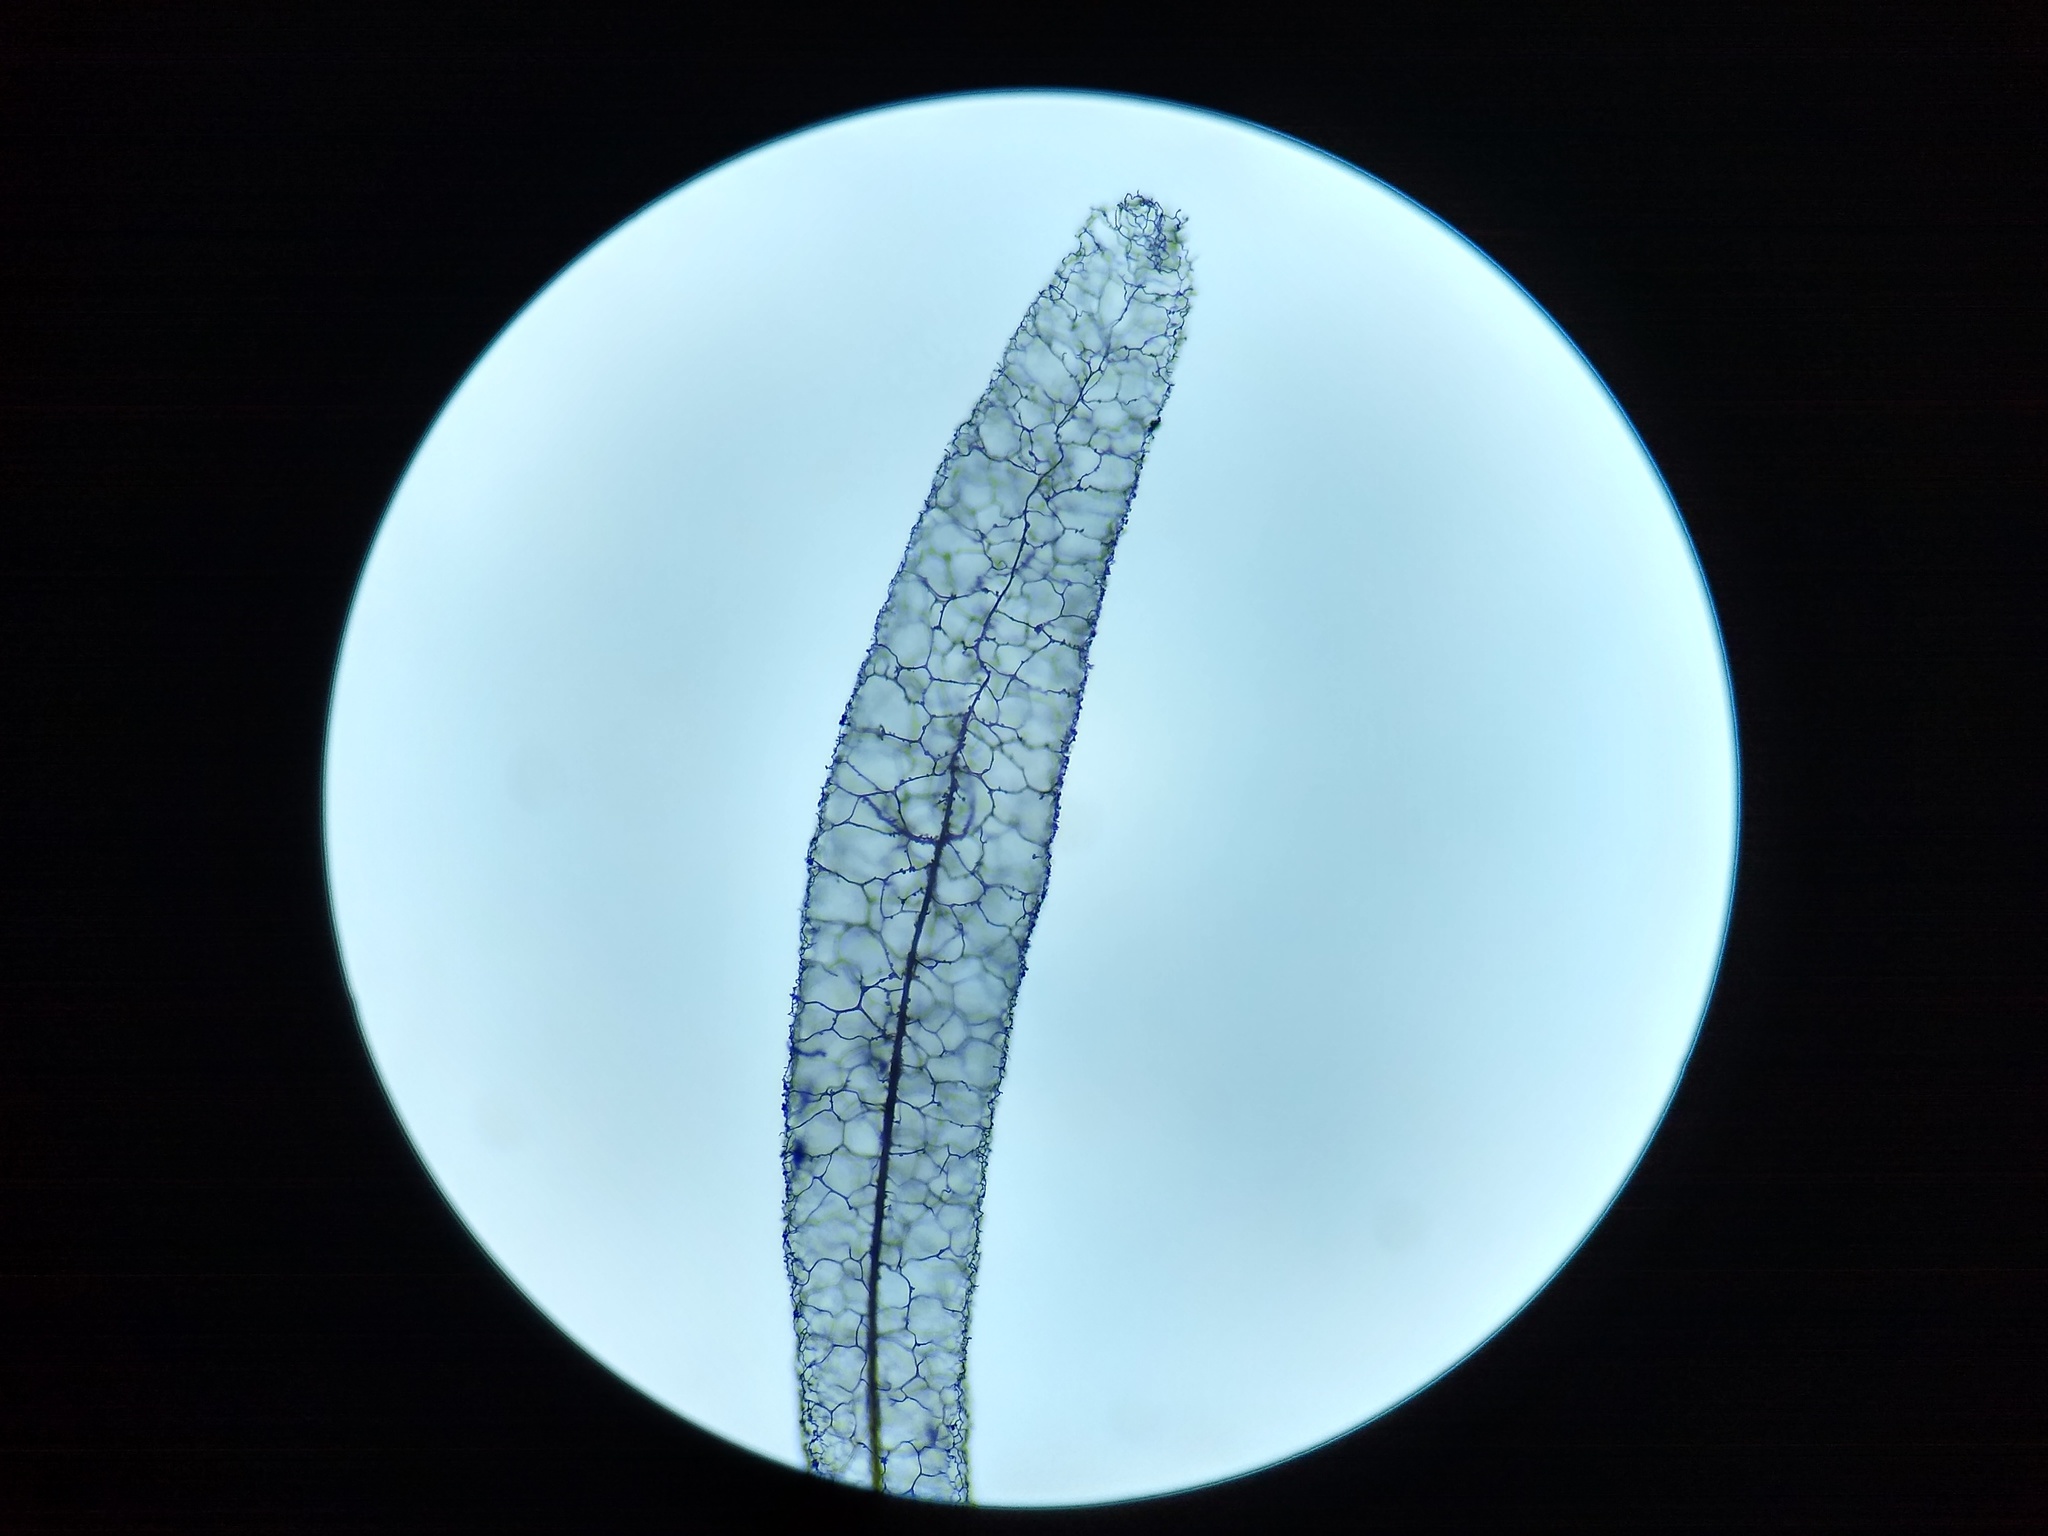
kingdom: Protozoa
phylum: Mycetozoa
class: Myxomycetes
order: Stemonitidales
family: Stemonitidaceae
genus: Stemonitis
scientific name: Stemonitis fusca
